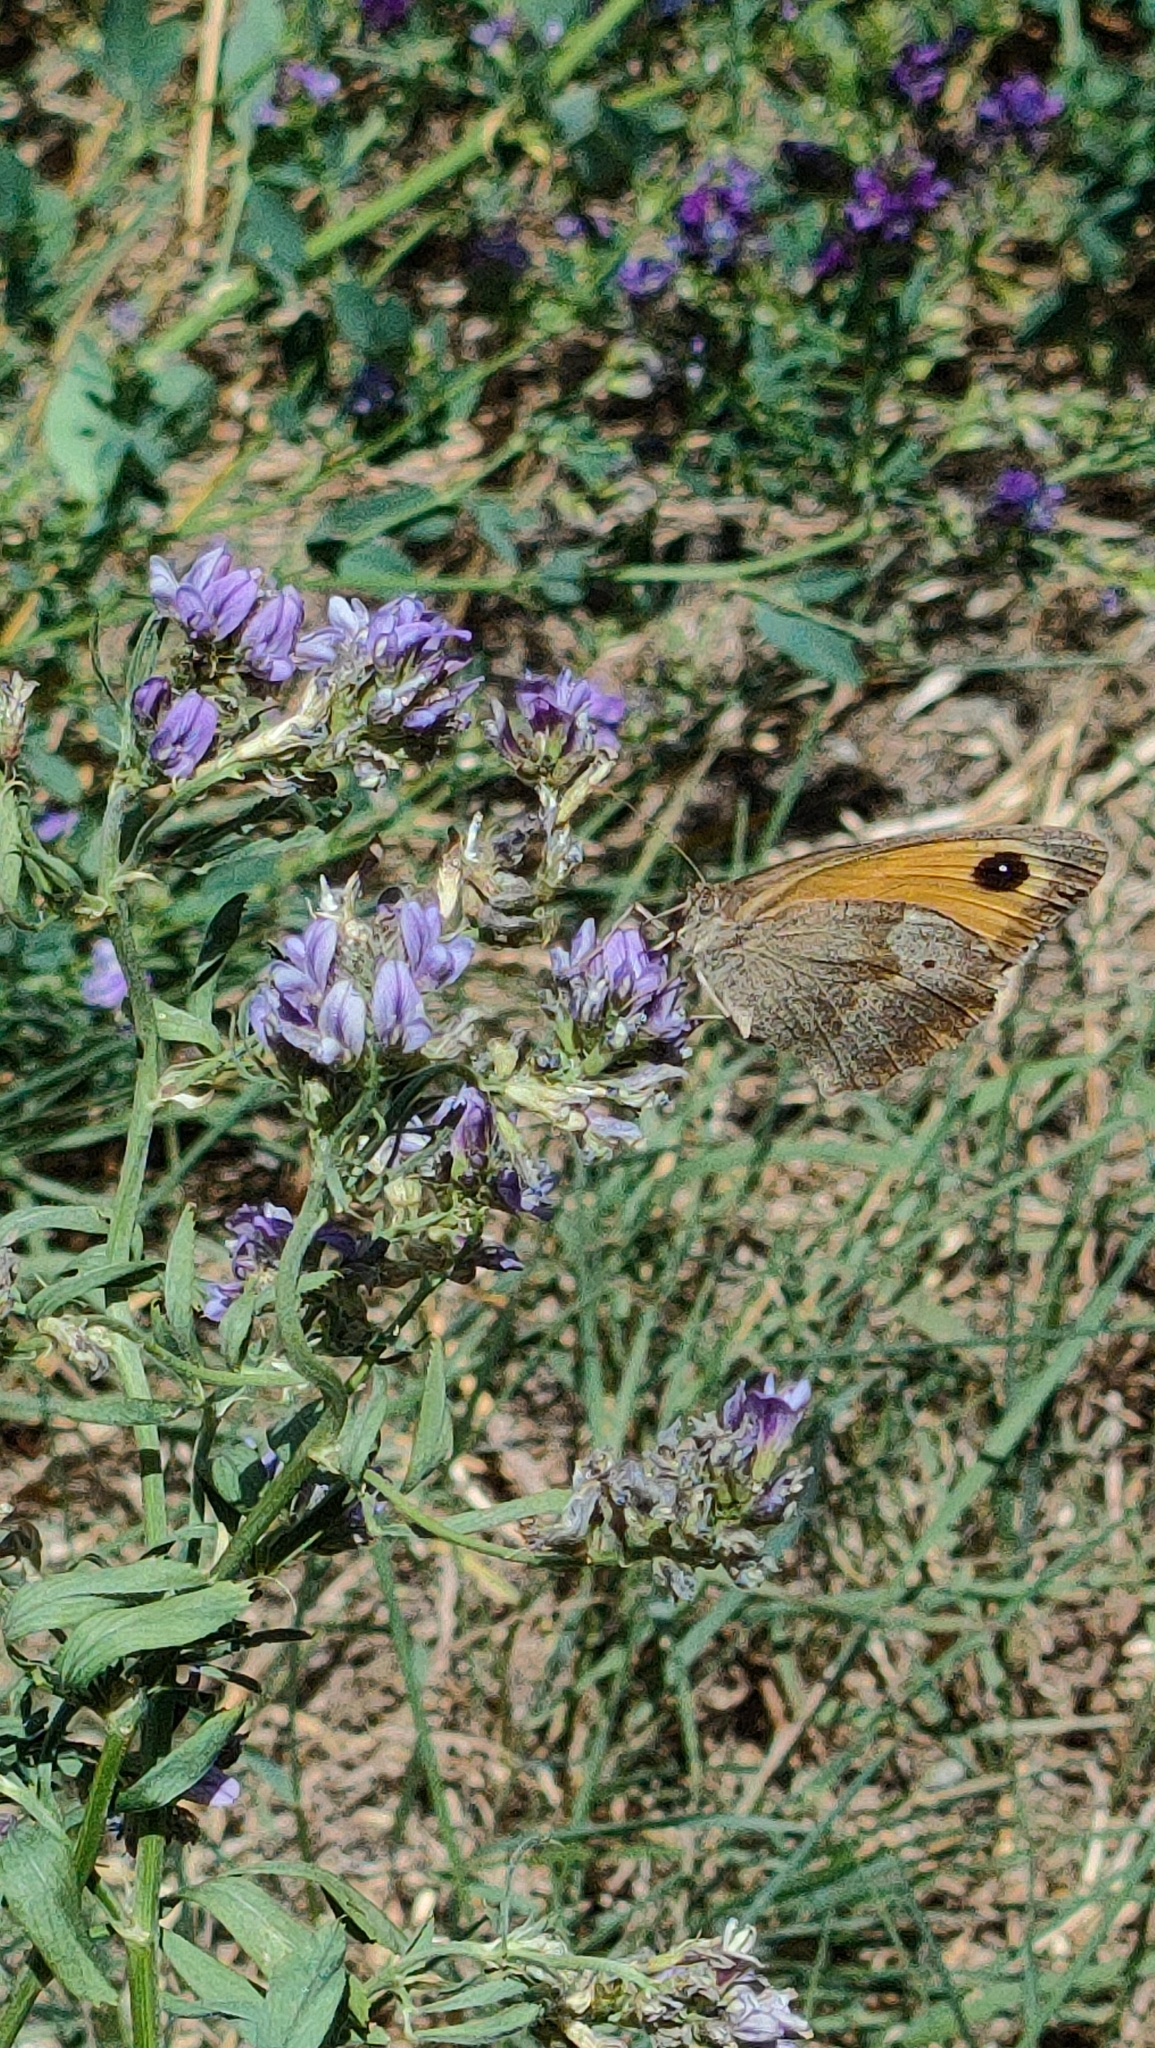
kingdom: Animalia
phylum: Arthropoda
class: Insecta
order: Lepidoptera
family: Nymphalidae
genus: Maniola
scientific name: Maniola jurtina
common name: Meadow brown
